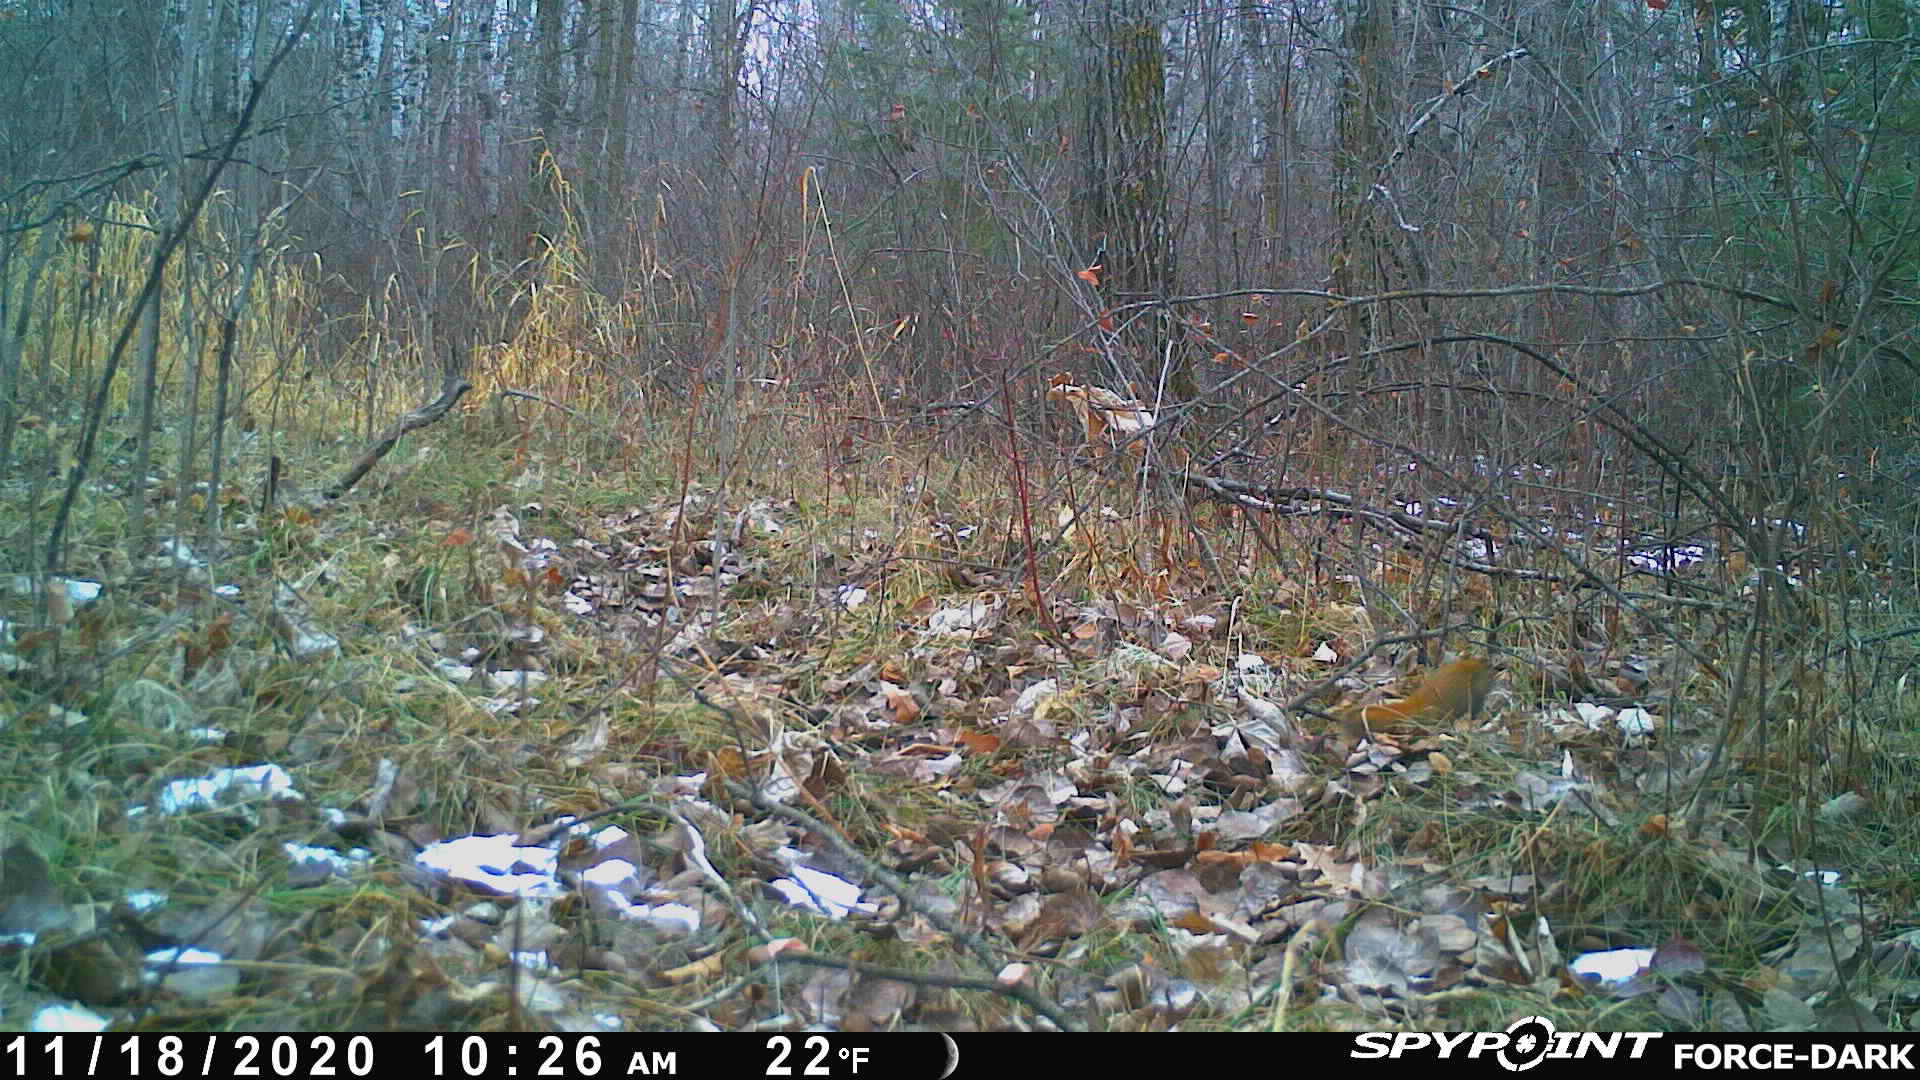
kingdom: Animalia
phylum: Chordata
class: Mammalia
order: Rodentia
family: Sciuridae
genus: Tamiasciurus
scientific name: Tamiasciurus hudsonicus
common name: Red squirrel
